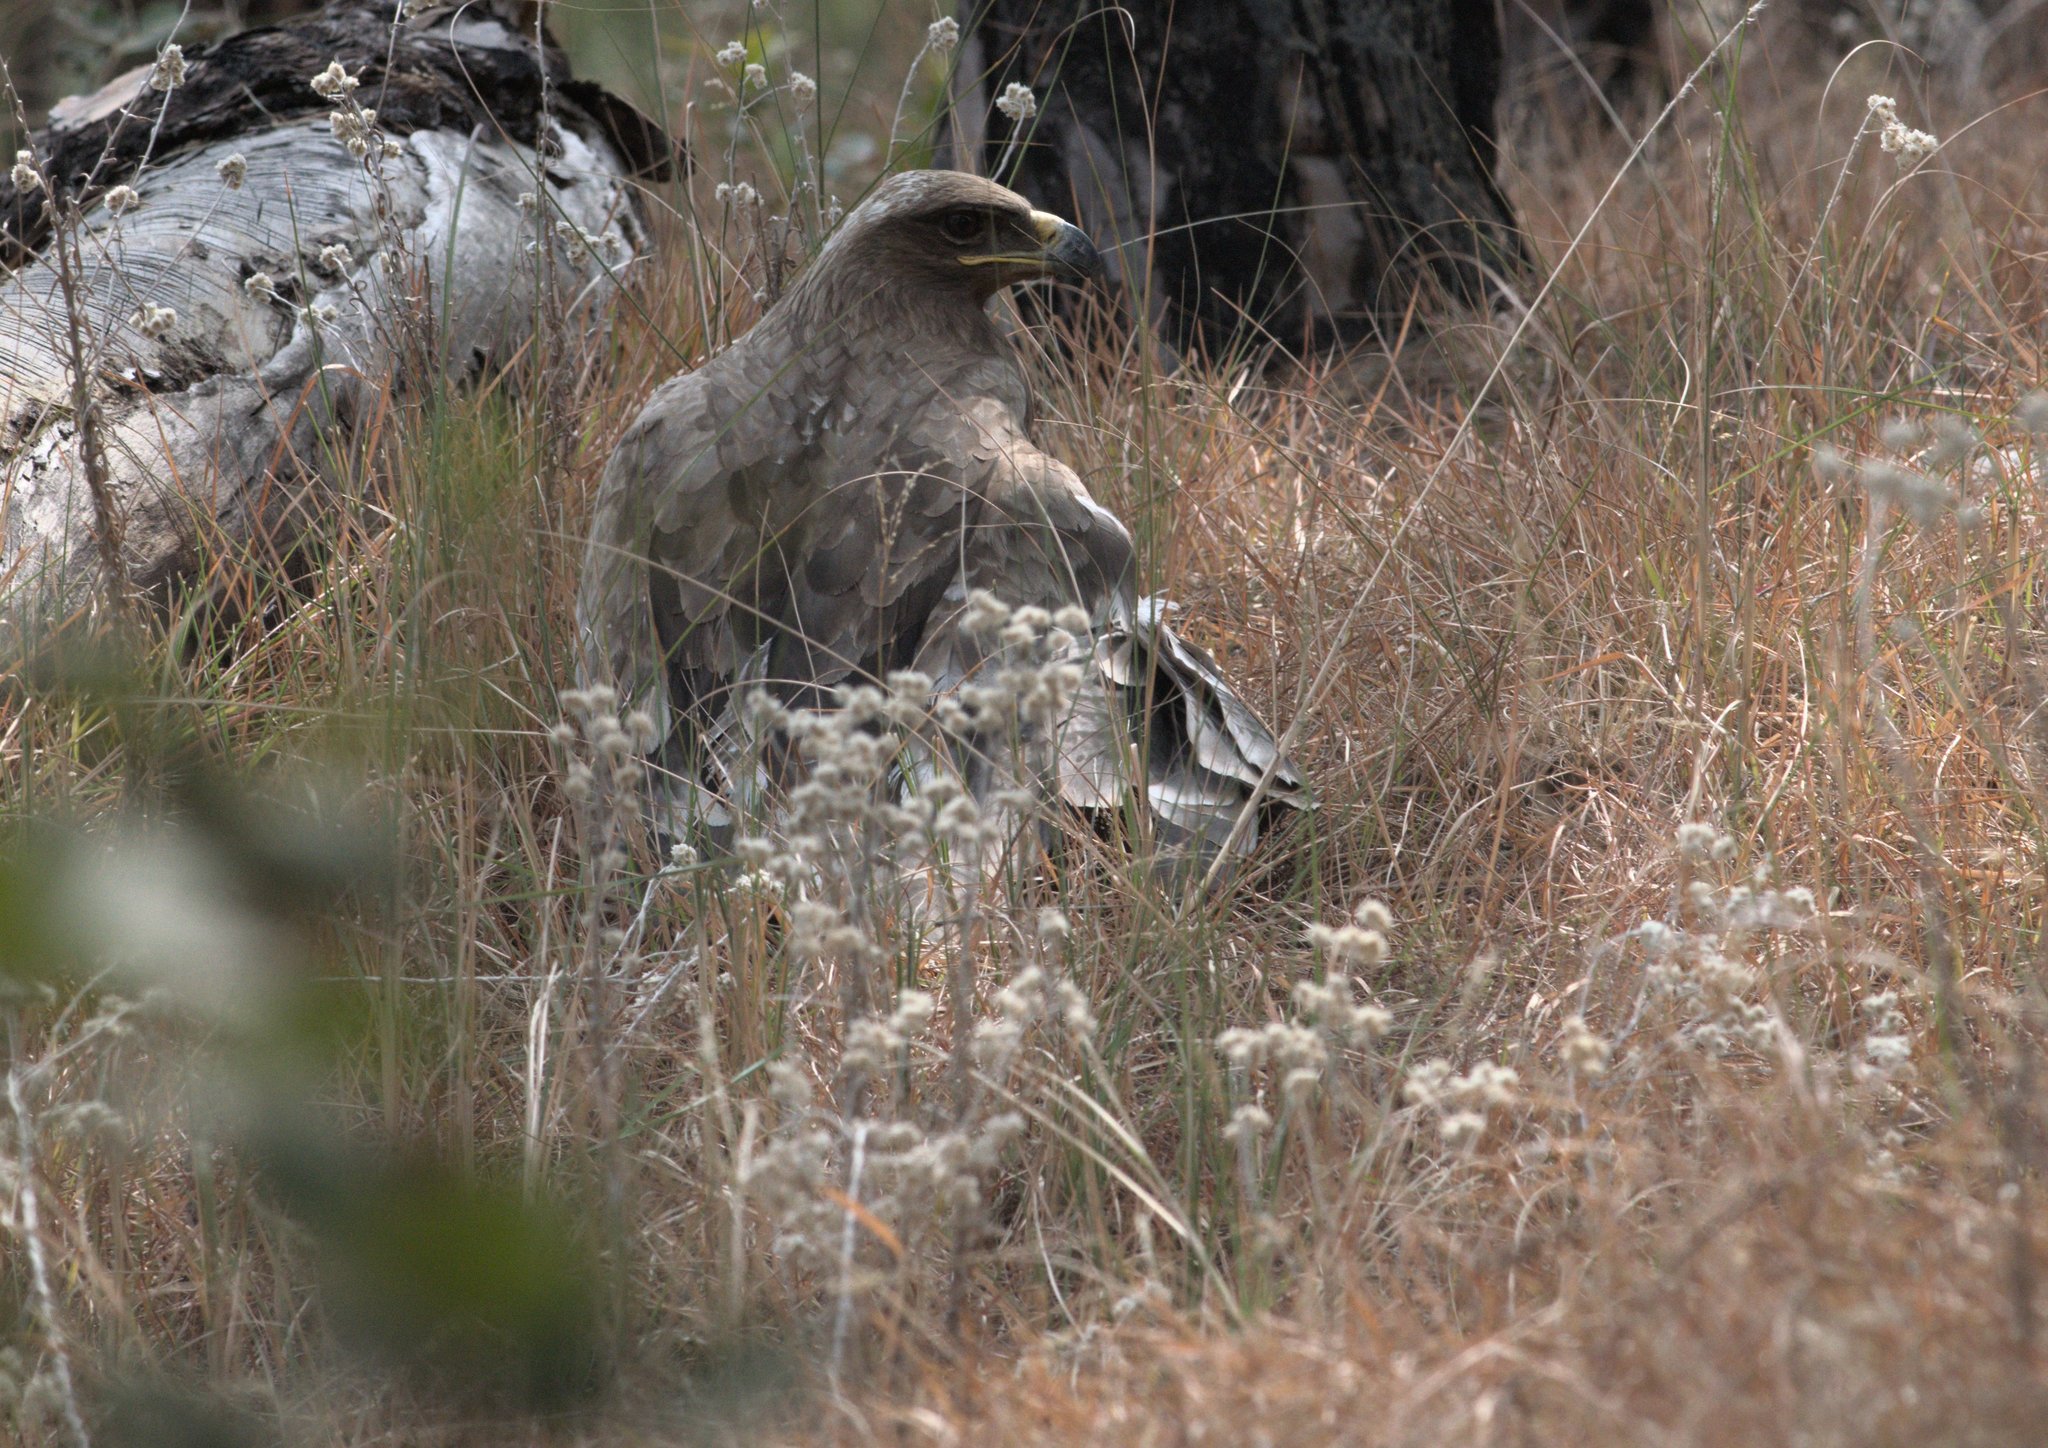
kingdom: Animalia
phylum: Chordata
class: Aves
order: Accipitriformes
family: Accipitridae
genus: Aquila
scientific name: Aquila nipalensis
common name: Steppe eagle
